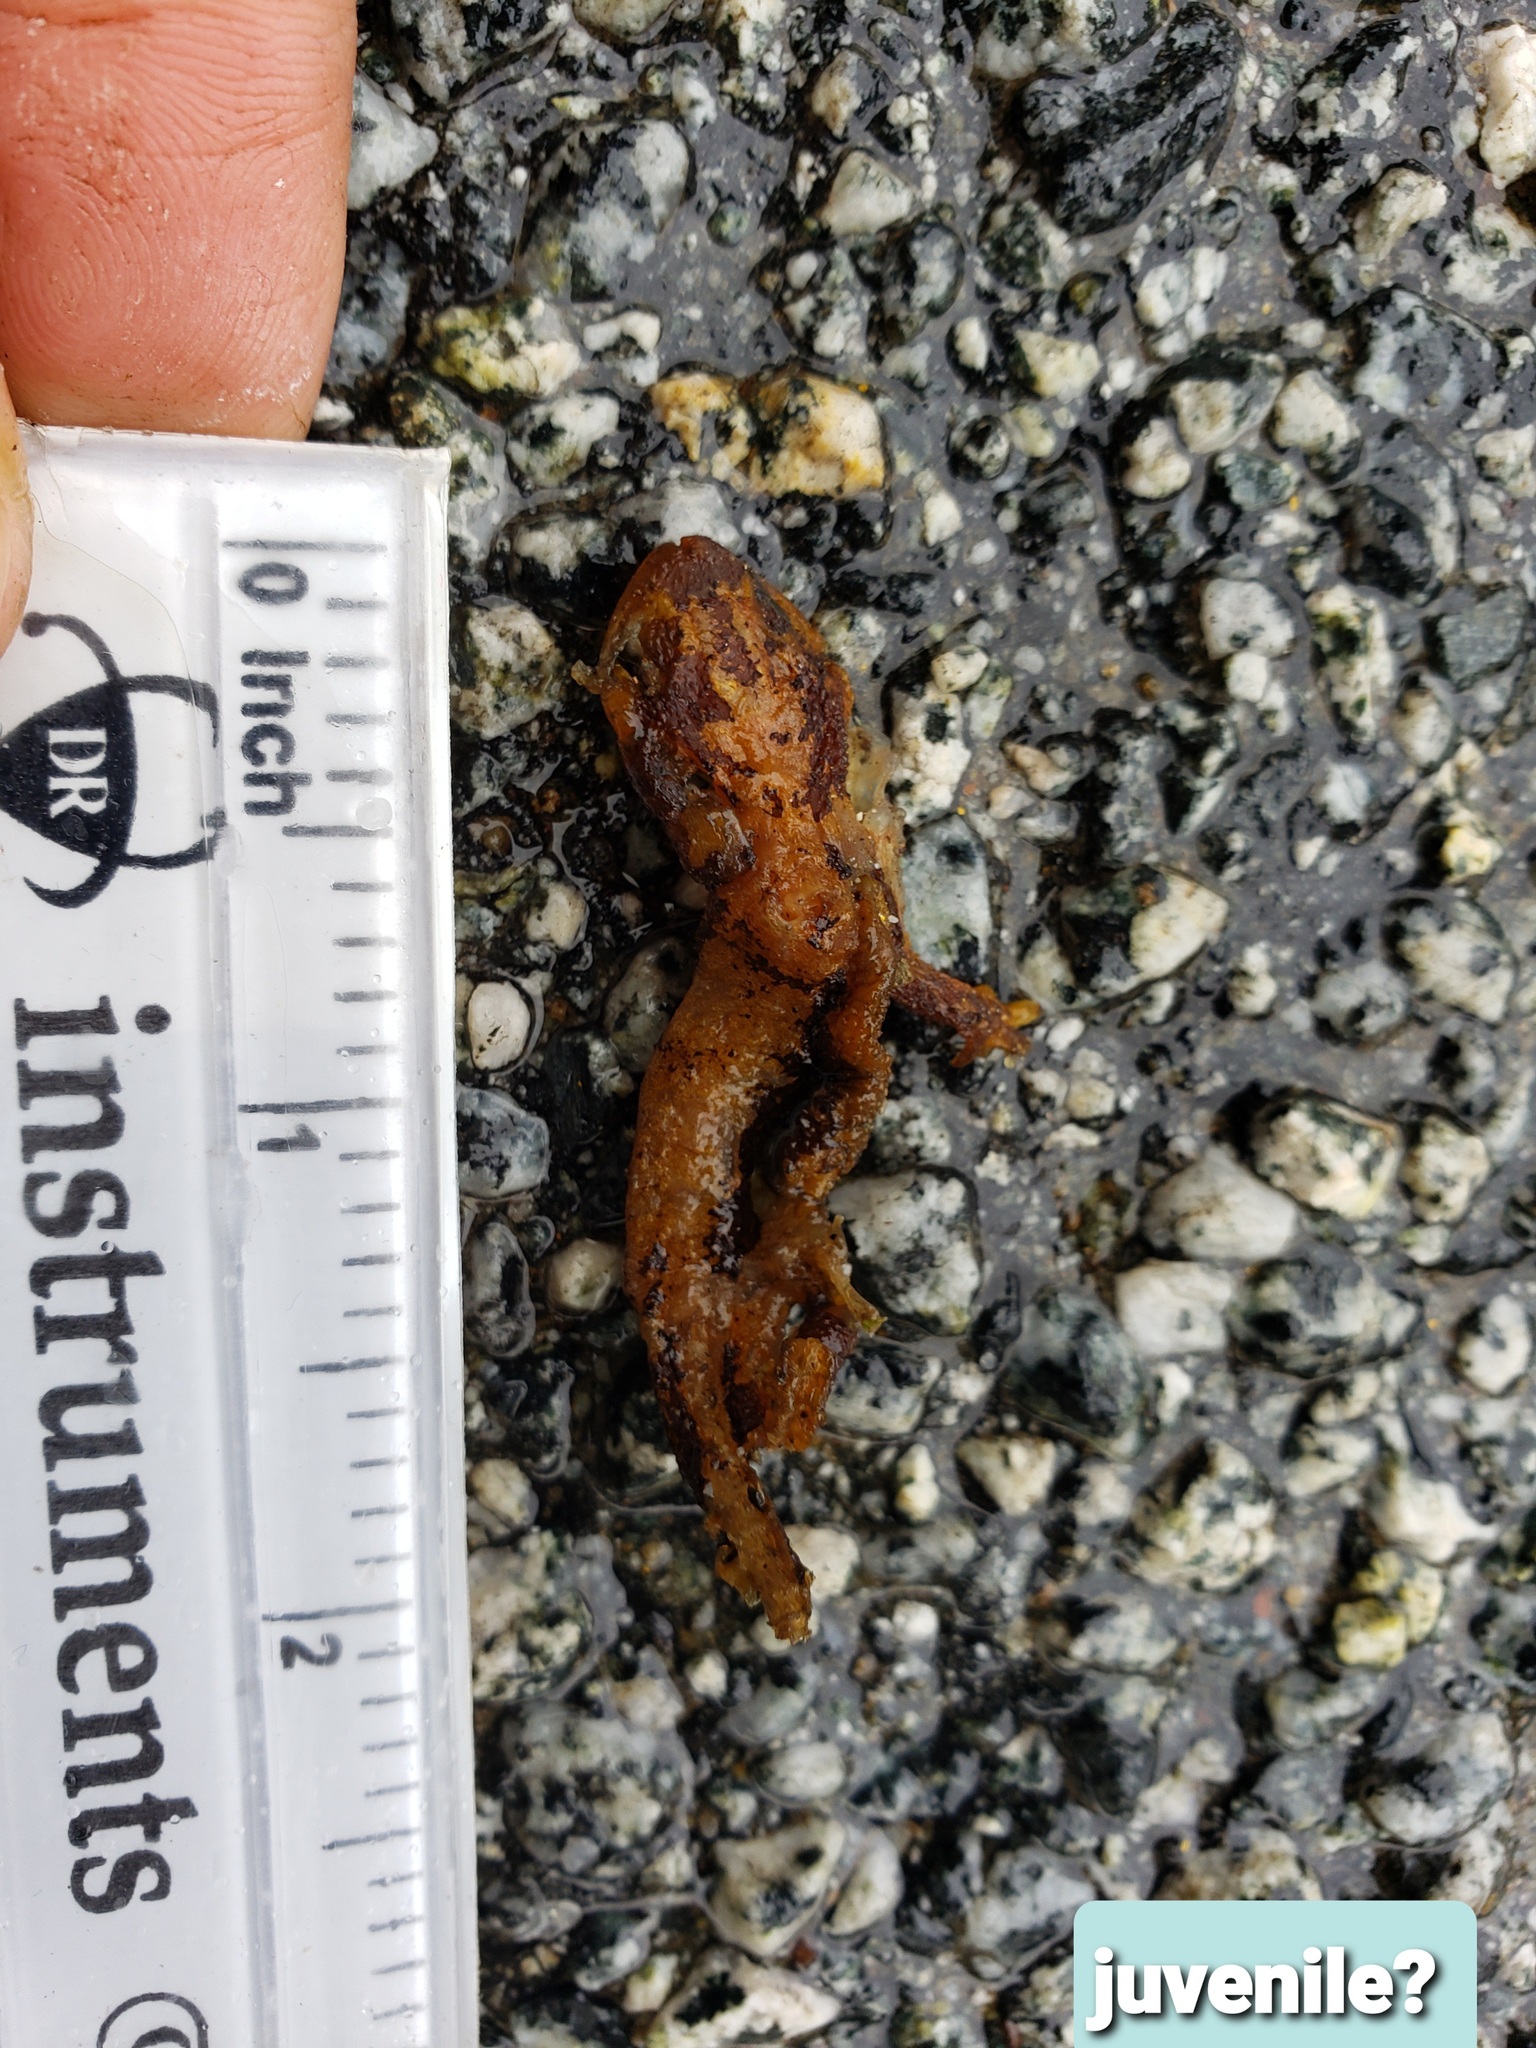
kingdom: Animalia
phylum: Chordata
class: Amphibia
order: Caudata
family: Salamandridae
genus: Taricha
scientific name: Taricha
